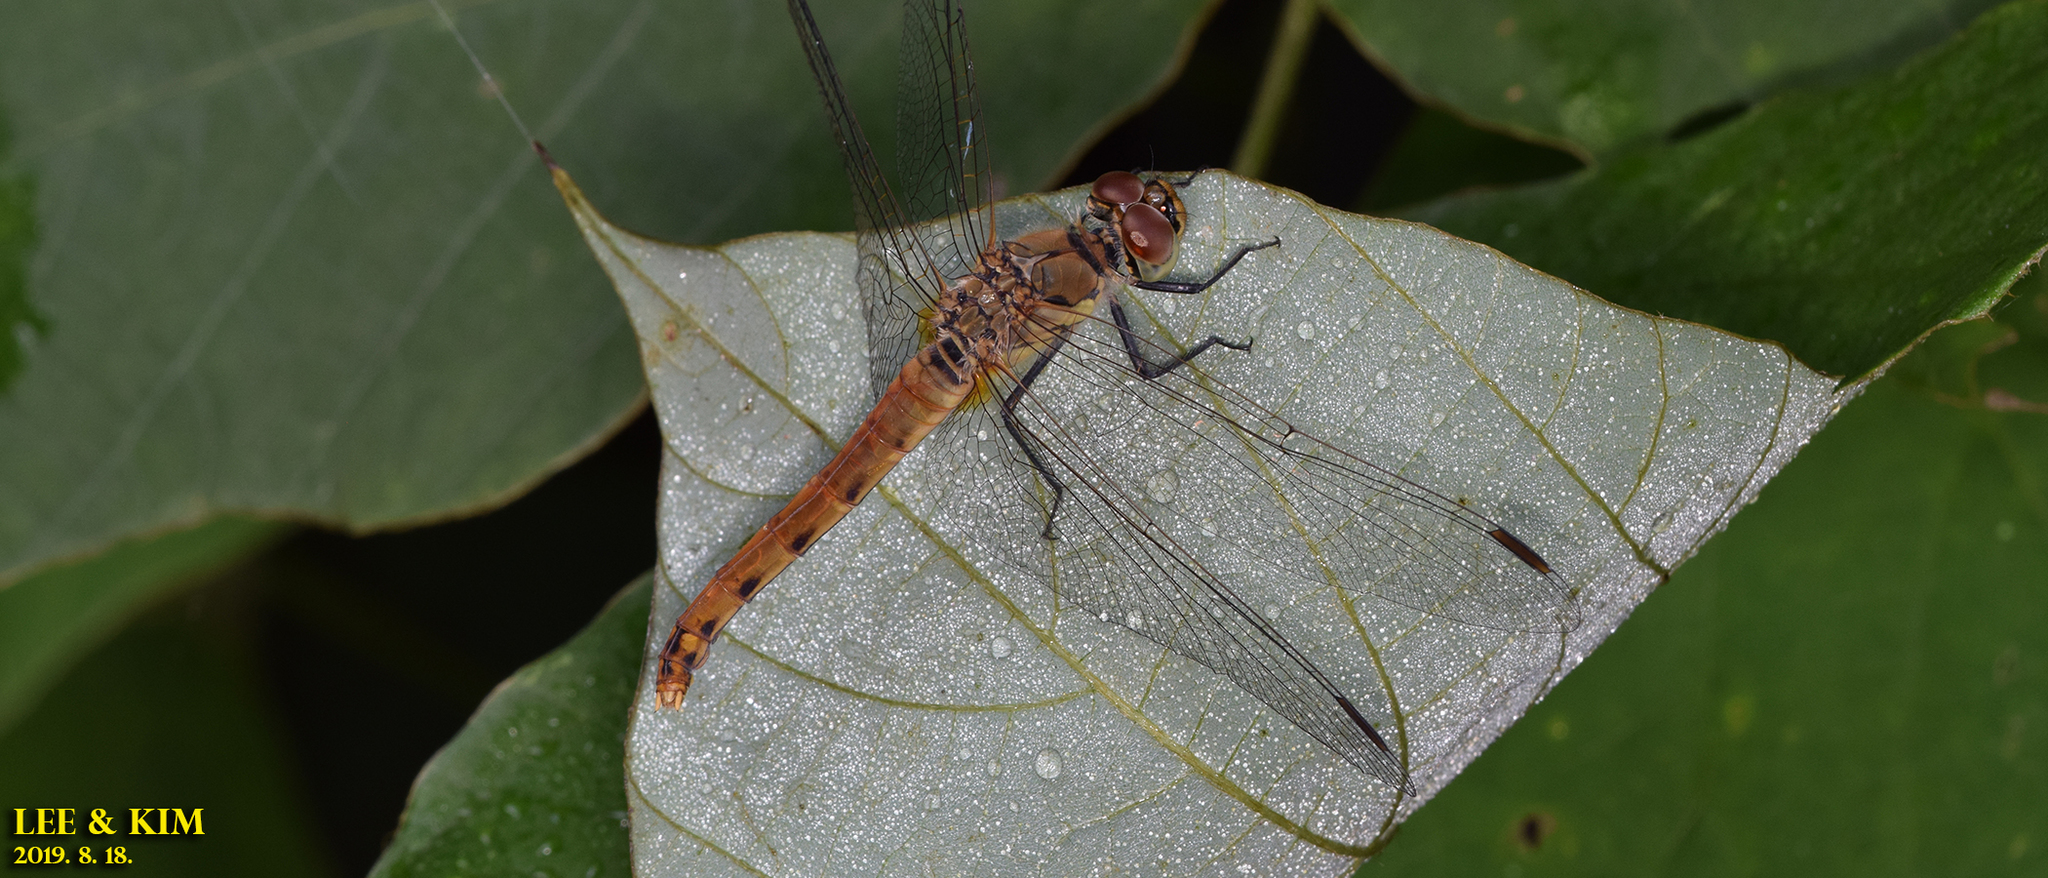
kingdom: Animalia
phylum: Arthropoda
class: Insecta
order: Odonata
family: Libellulidae
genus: Sympetrum
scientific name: Sympetrum depressiusculum
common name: Spotted darter
